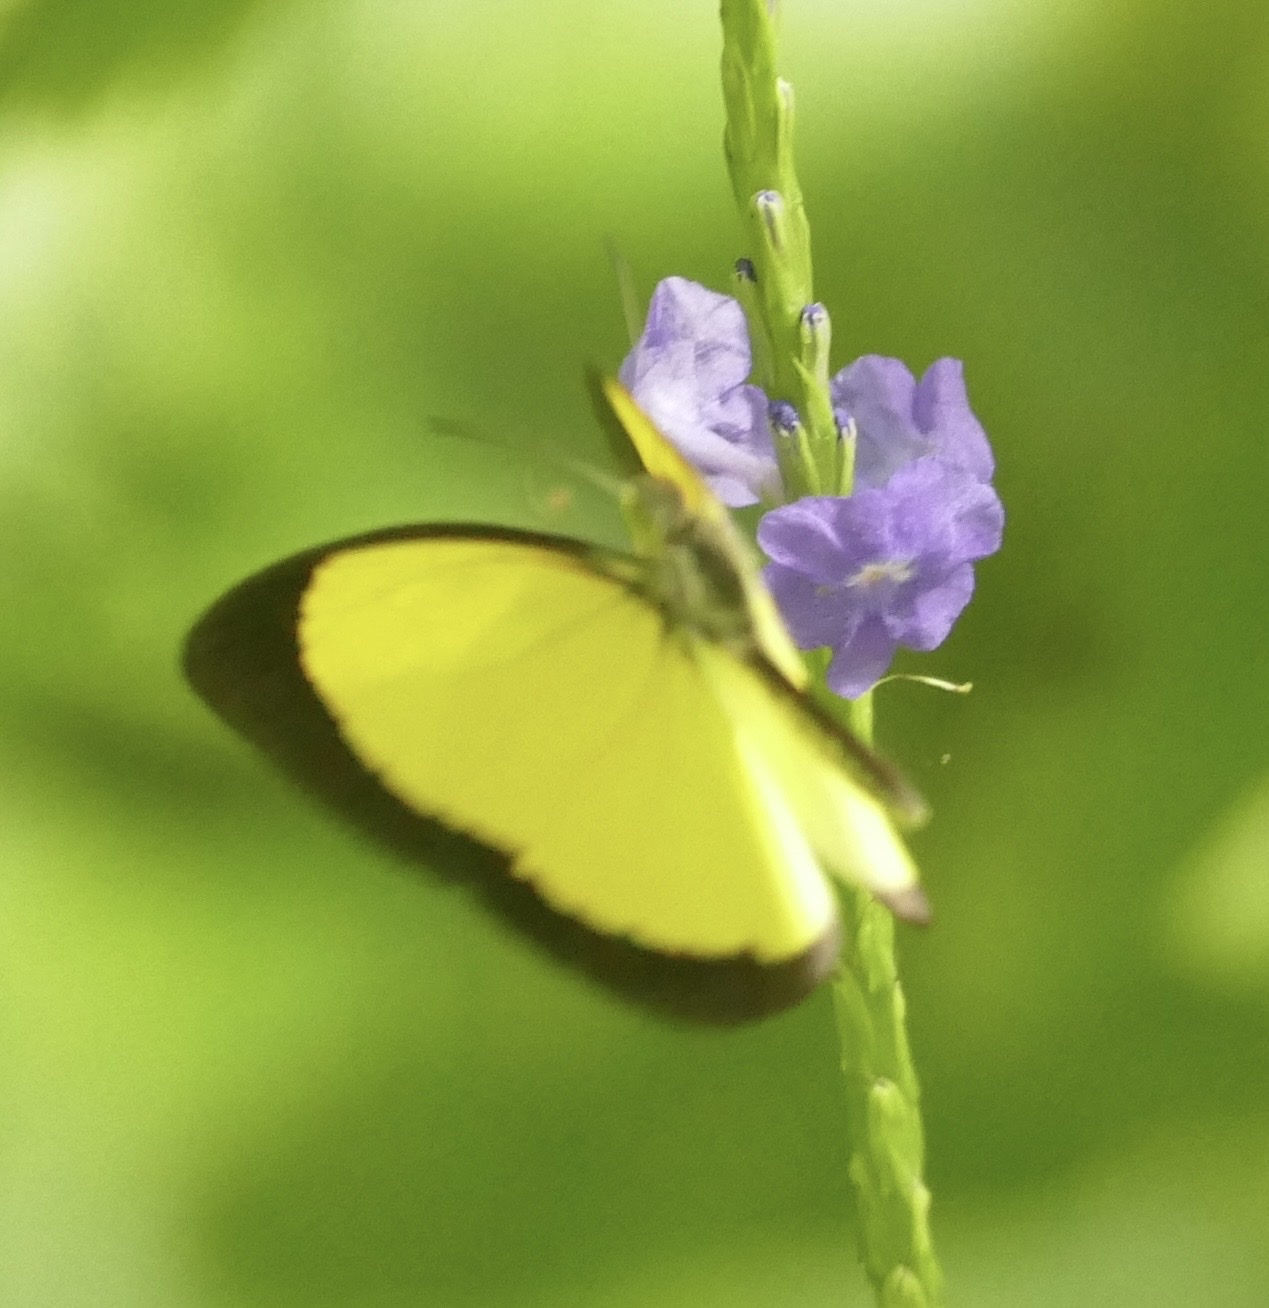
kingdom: Animalia
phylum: Arthropoda
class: Insecta
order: Lepidoptera
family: Pieridae
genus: Eurema
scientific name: Eurema puella
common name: Broad margined grass yellow
